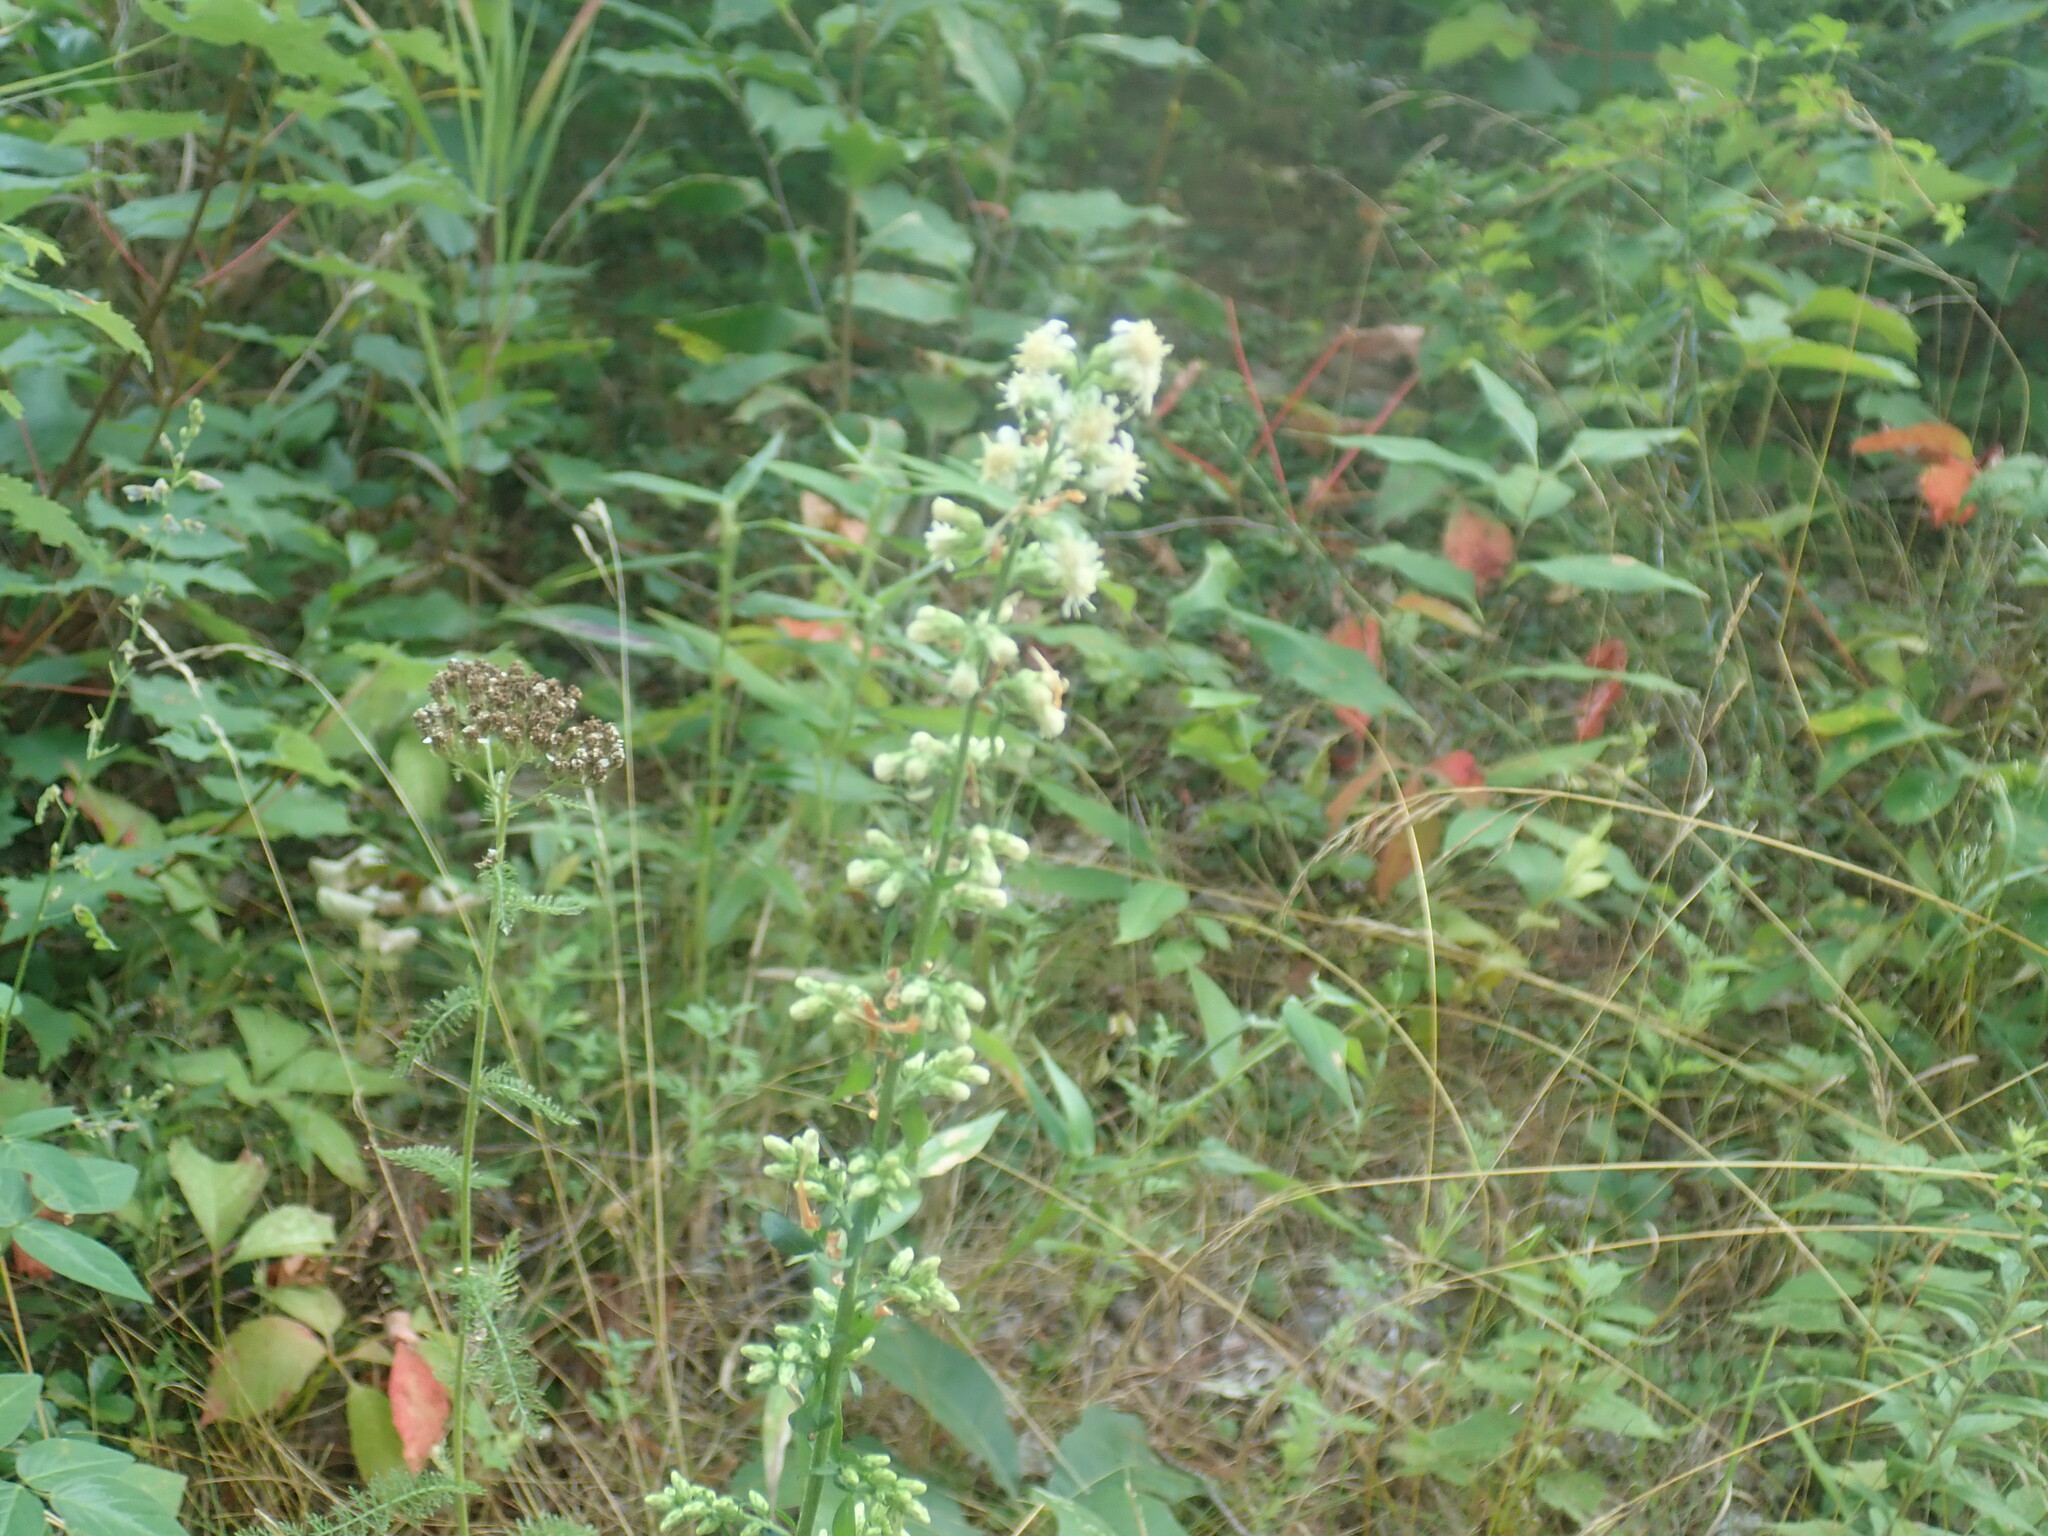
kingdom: Plantae
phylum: Tracheophyta
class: Magnoliopsida
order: Asterales
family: Asteraceae
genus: Solidago
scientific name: Solidago bicolor
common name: Silverrod
